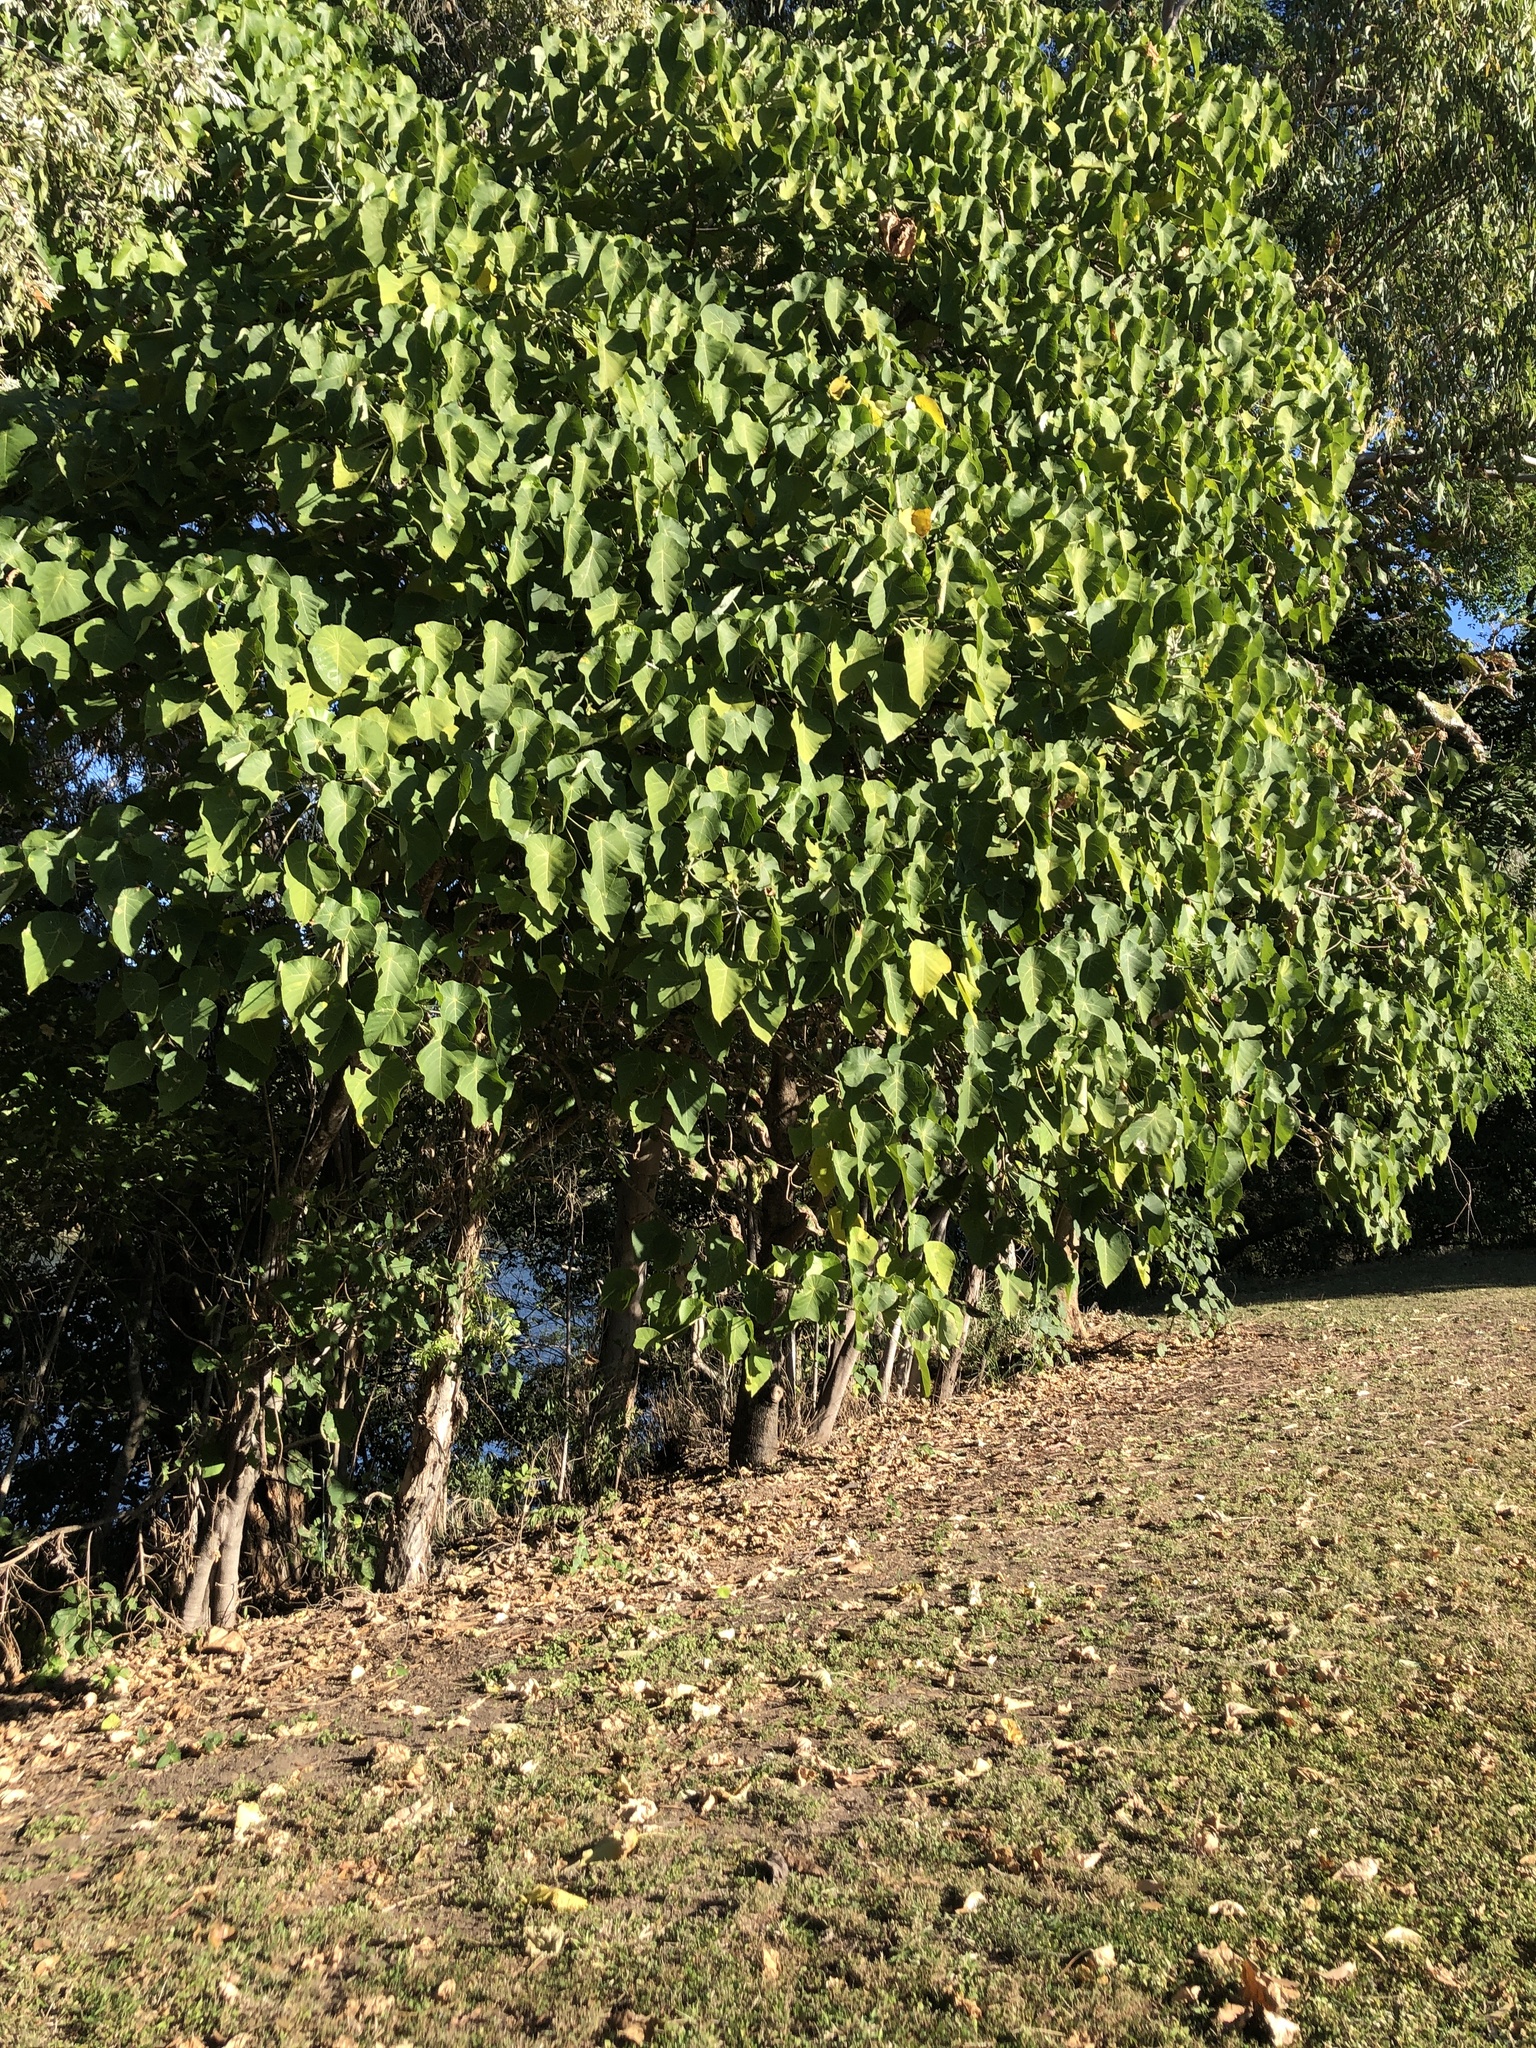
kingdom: Plantae
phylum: Tracheophyta
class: Magnoliopsida
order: Malpighiales
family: Euphorbiaceae
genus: Macaranga
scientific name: Macaranga tanarius
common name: Parasol leaf tree
